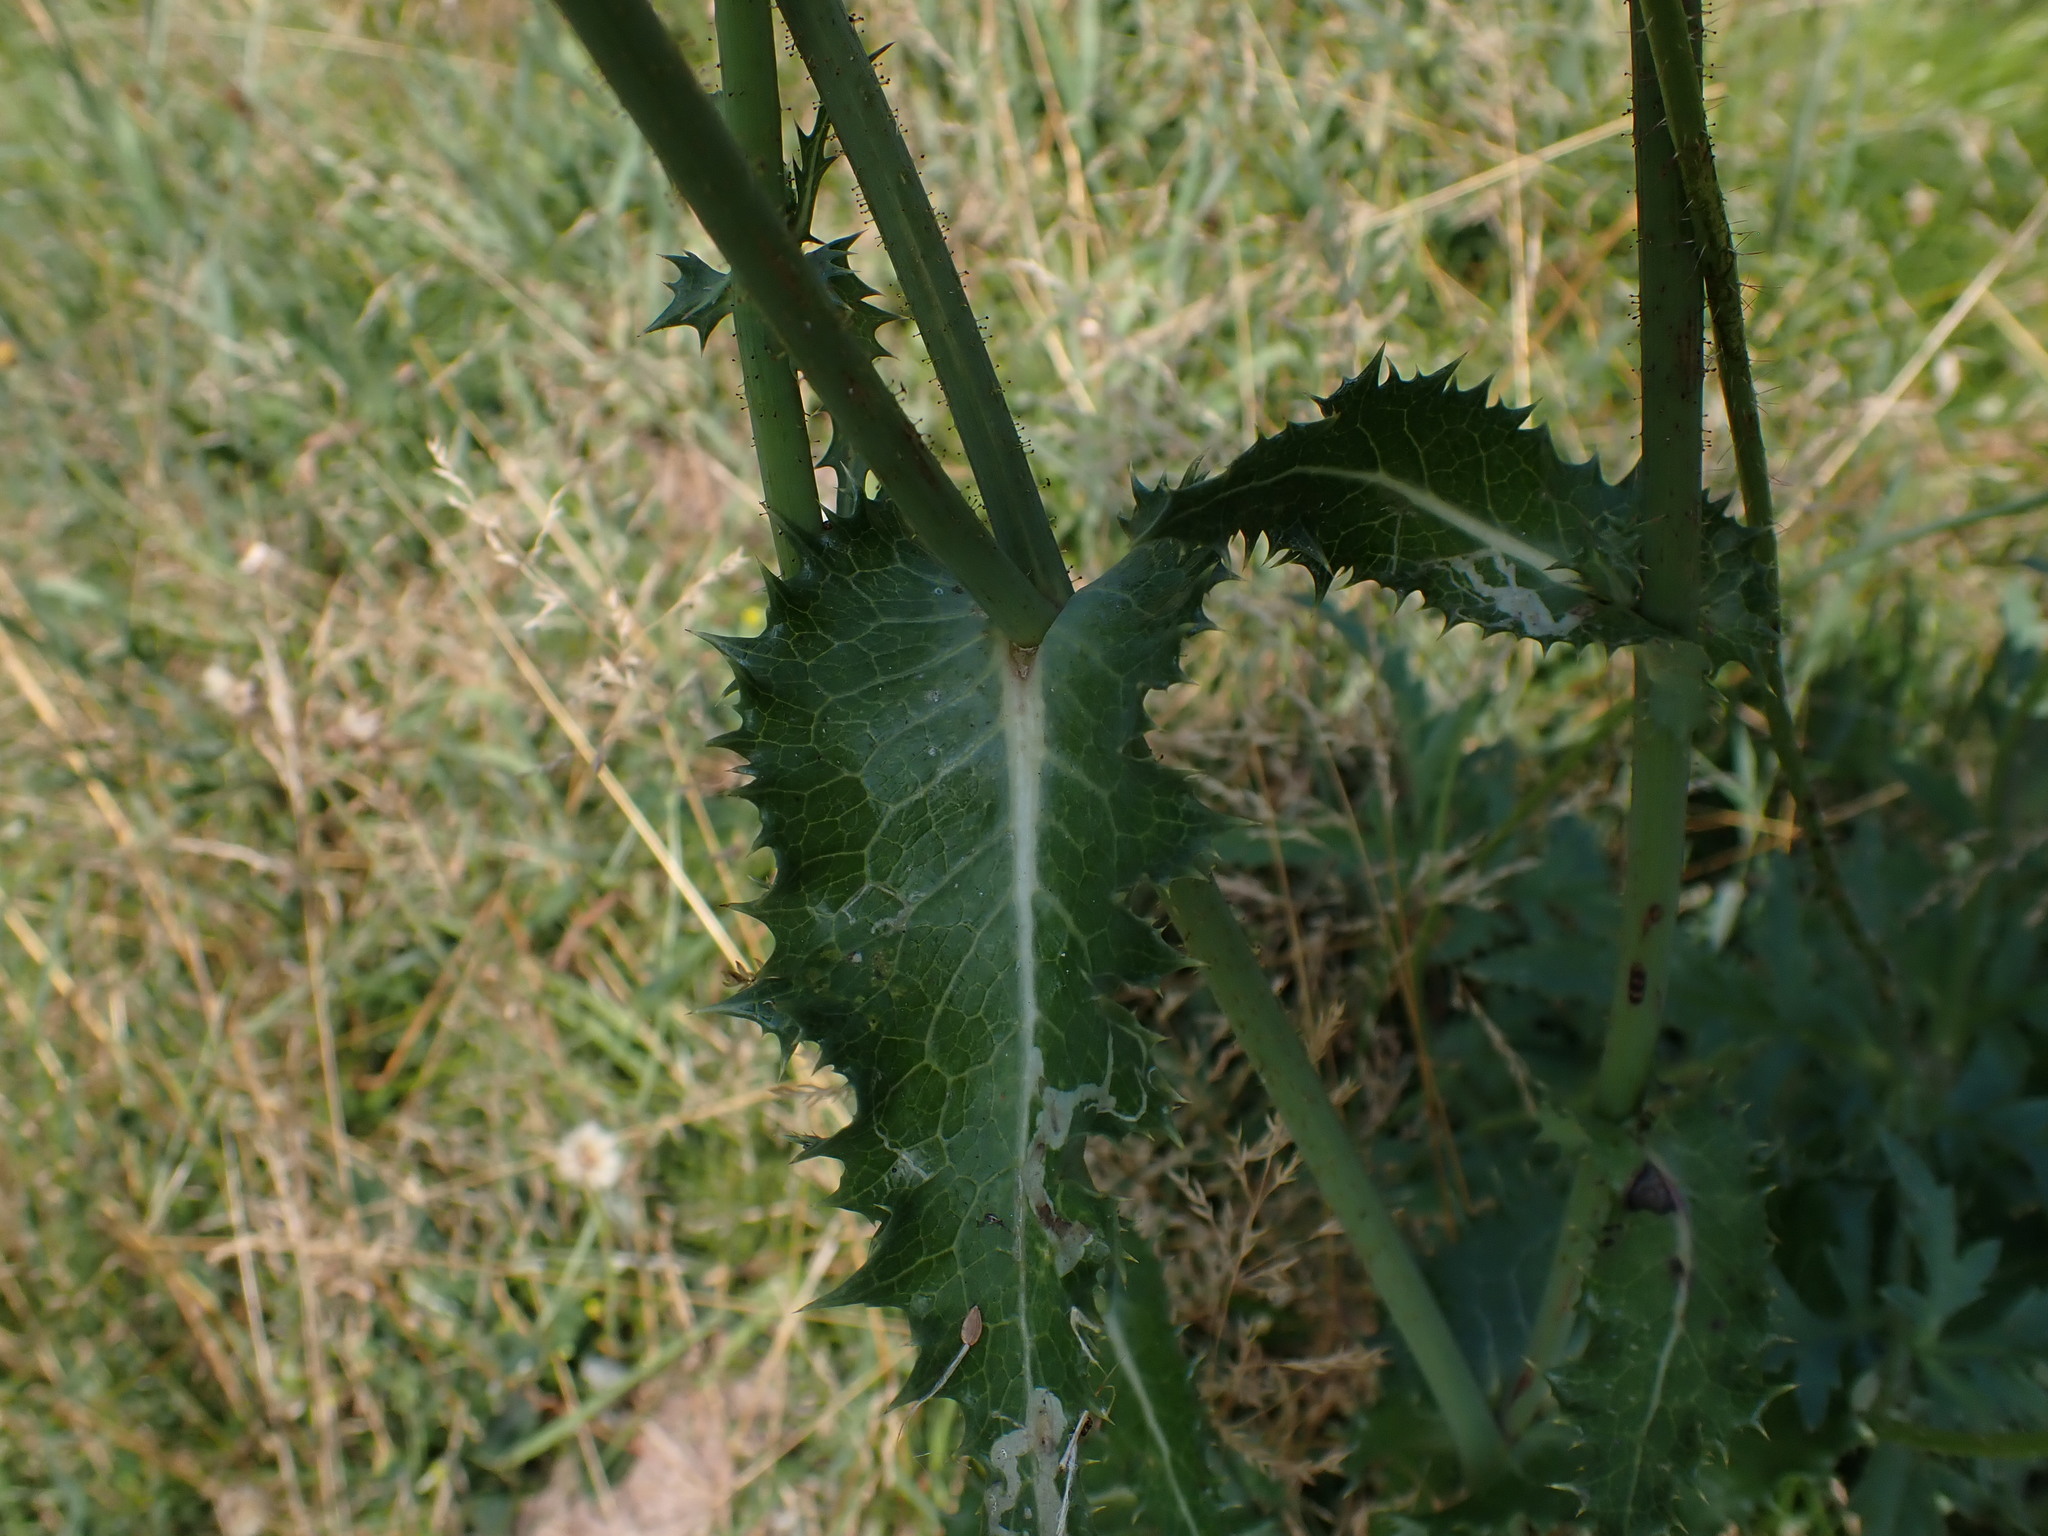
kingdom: Plantae
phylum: Tracheophyta
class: Magnoliopsida
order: Asterales
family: Asteraceae
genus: Sonchus
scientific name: Sonchus asper
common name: Prickly sow-thistle
